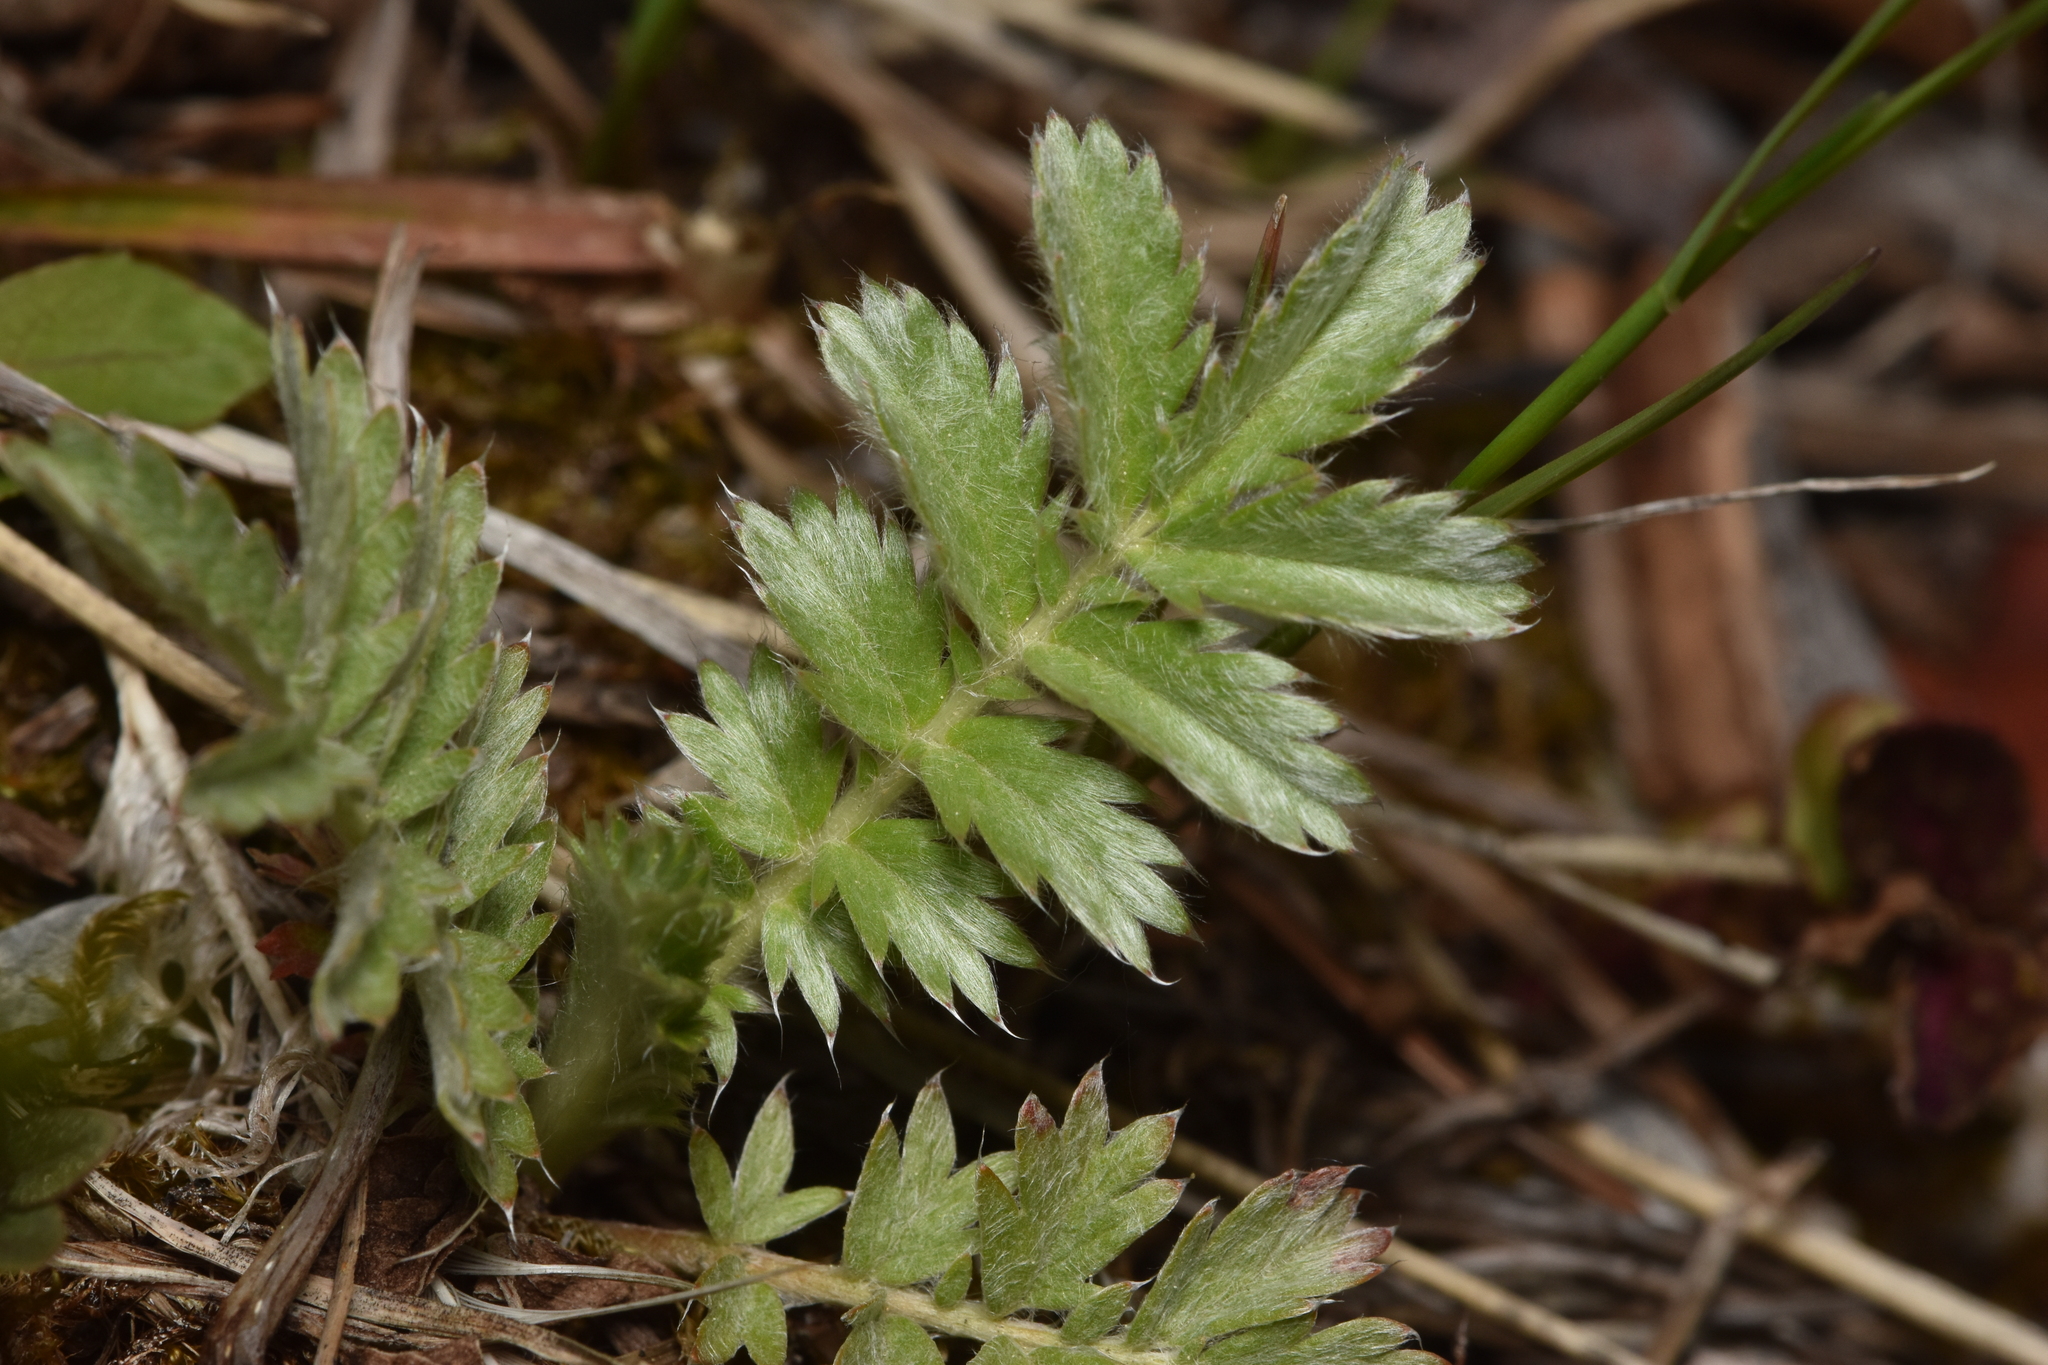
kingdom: Plantae
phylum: Tracheophyta
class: Magnoliopsida
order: Rosales
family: Rosaceae
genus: Argentina
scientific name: Argentina anserina
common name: Common silverweed
